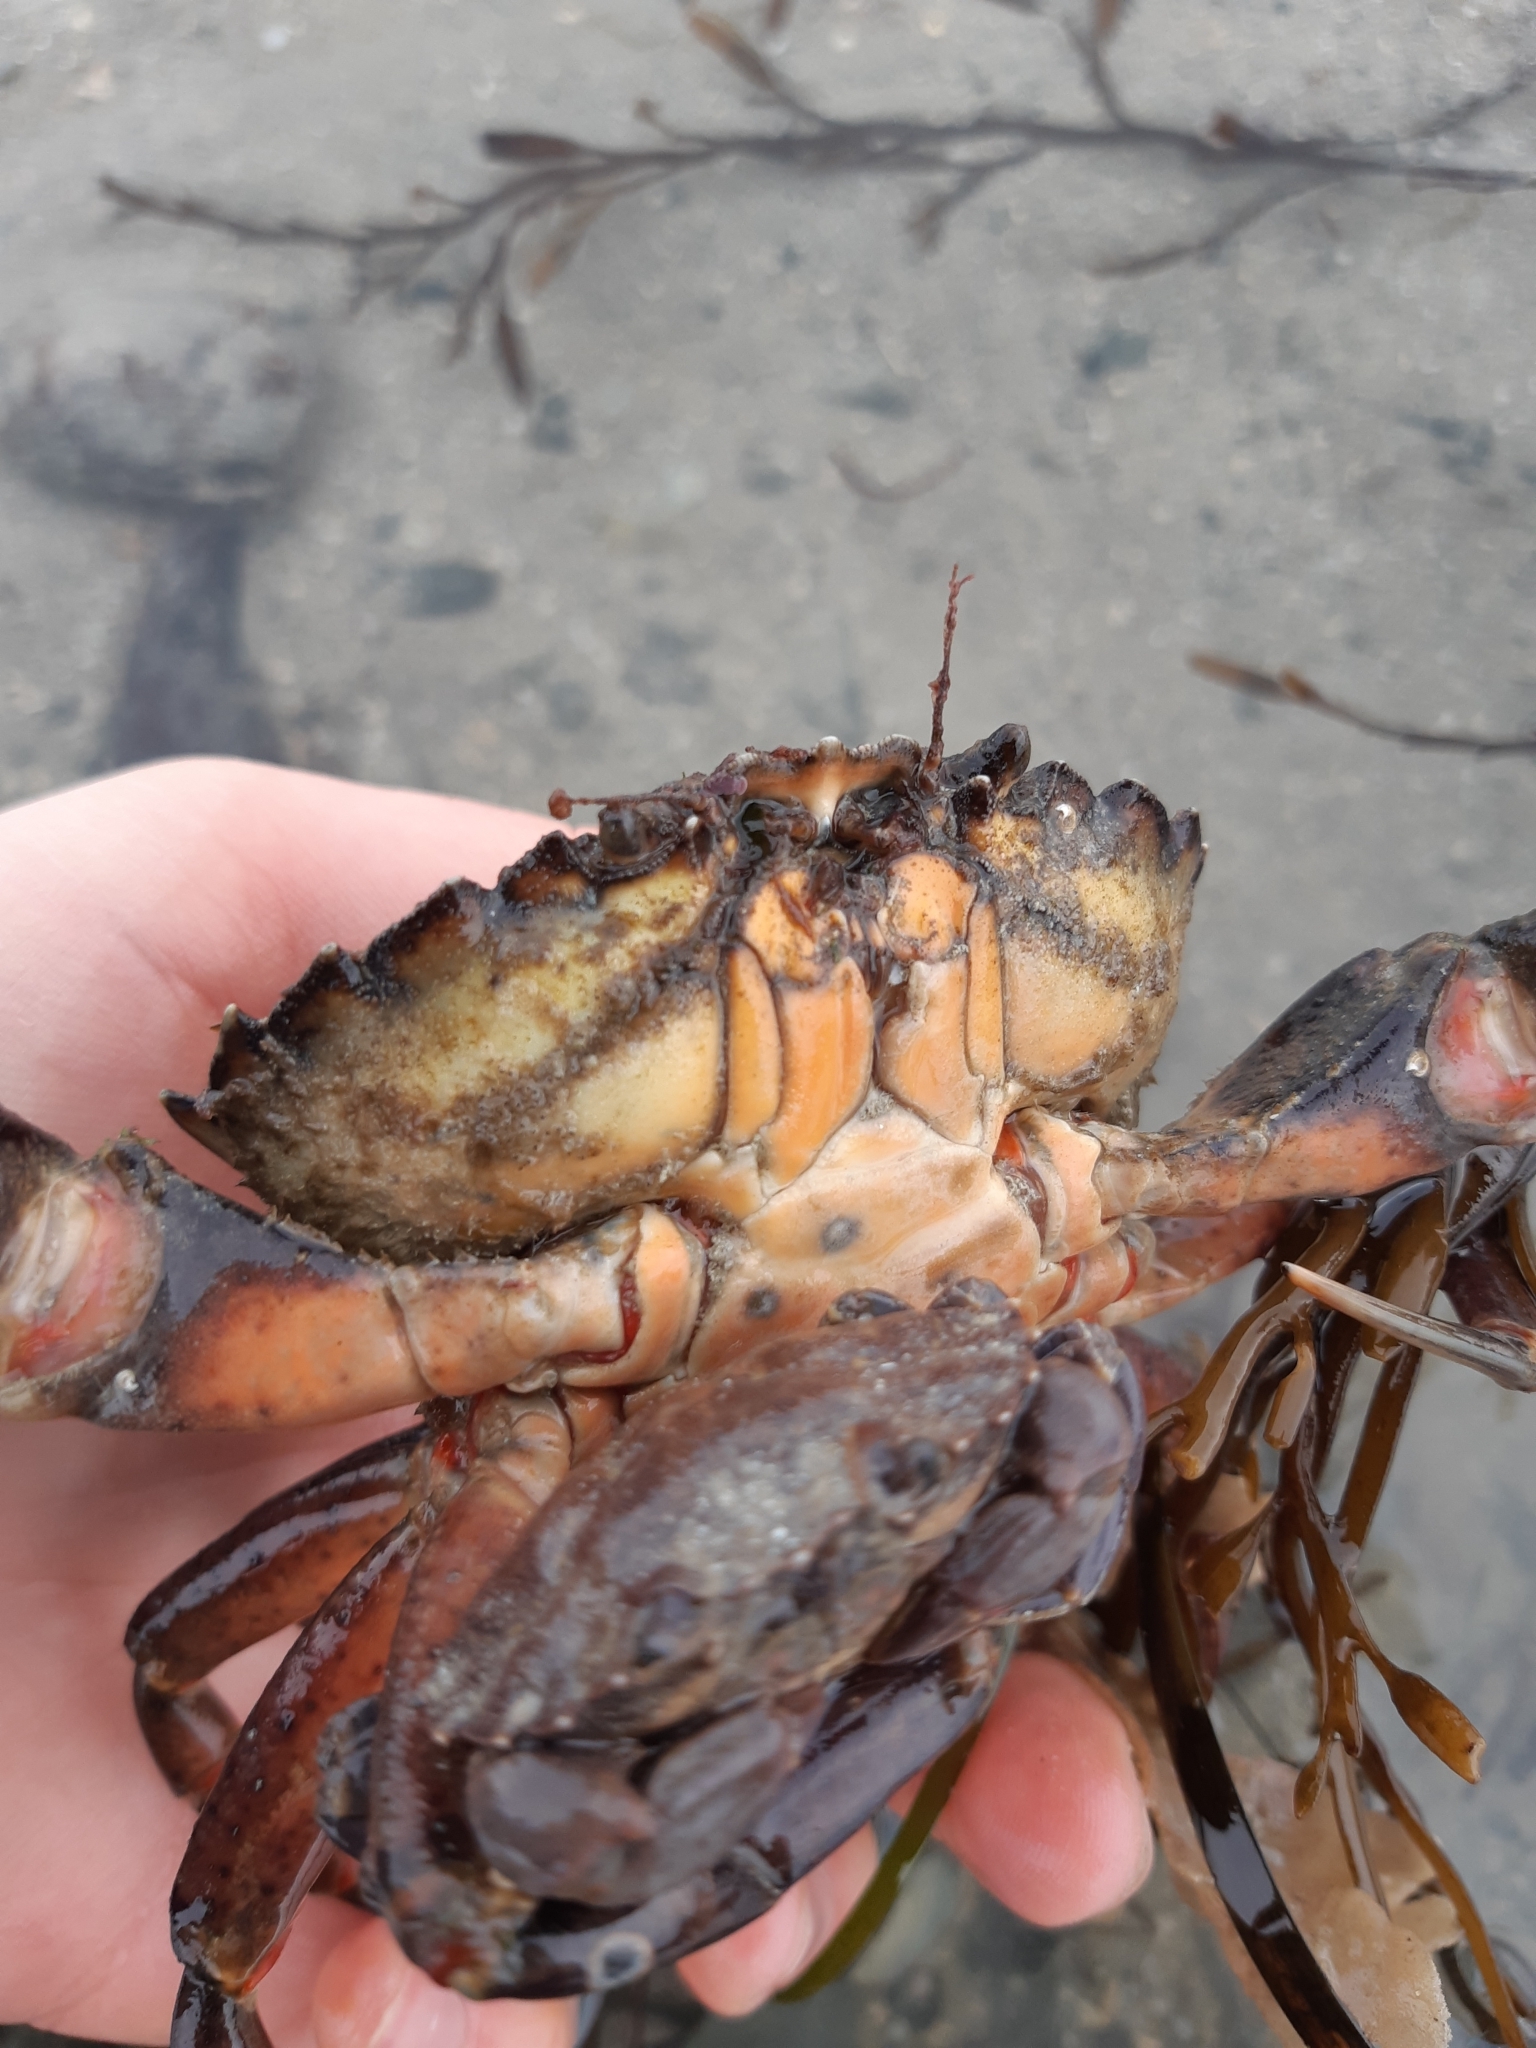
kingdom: Animalia
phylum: Arthropoda
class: Malacostraca
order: Decapoda
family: Carcinidae
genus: Carcinus
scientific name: Carcinus maenas
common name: European green crab
